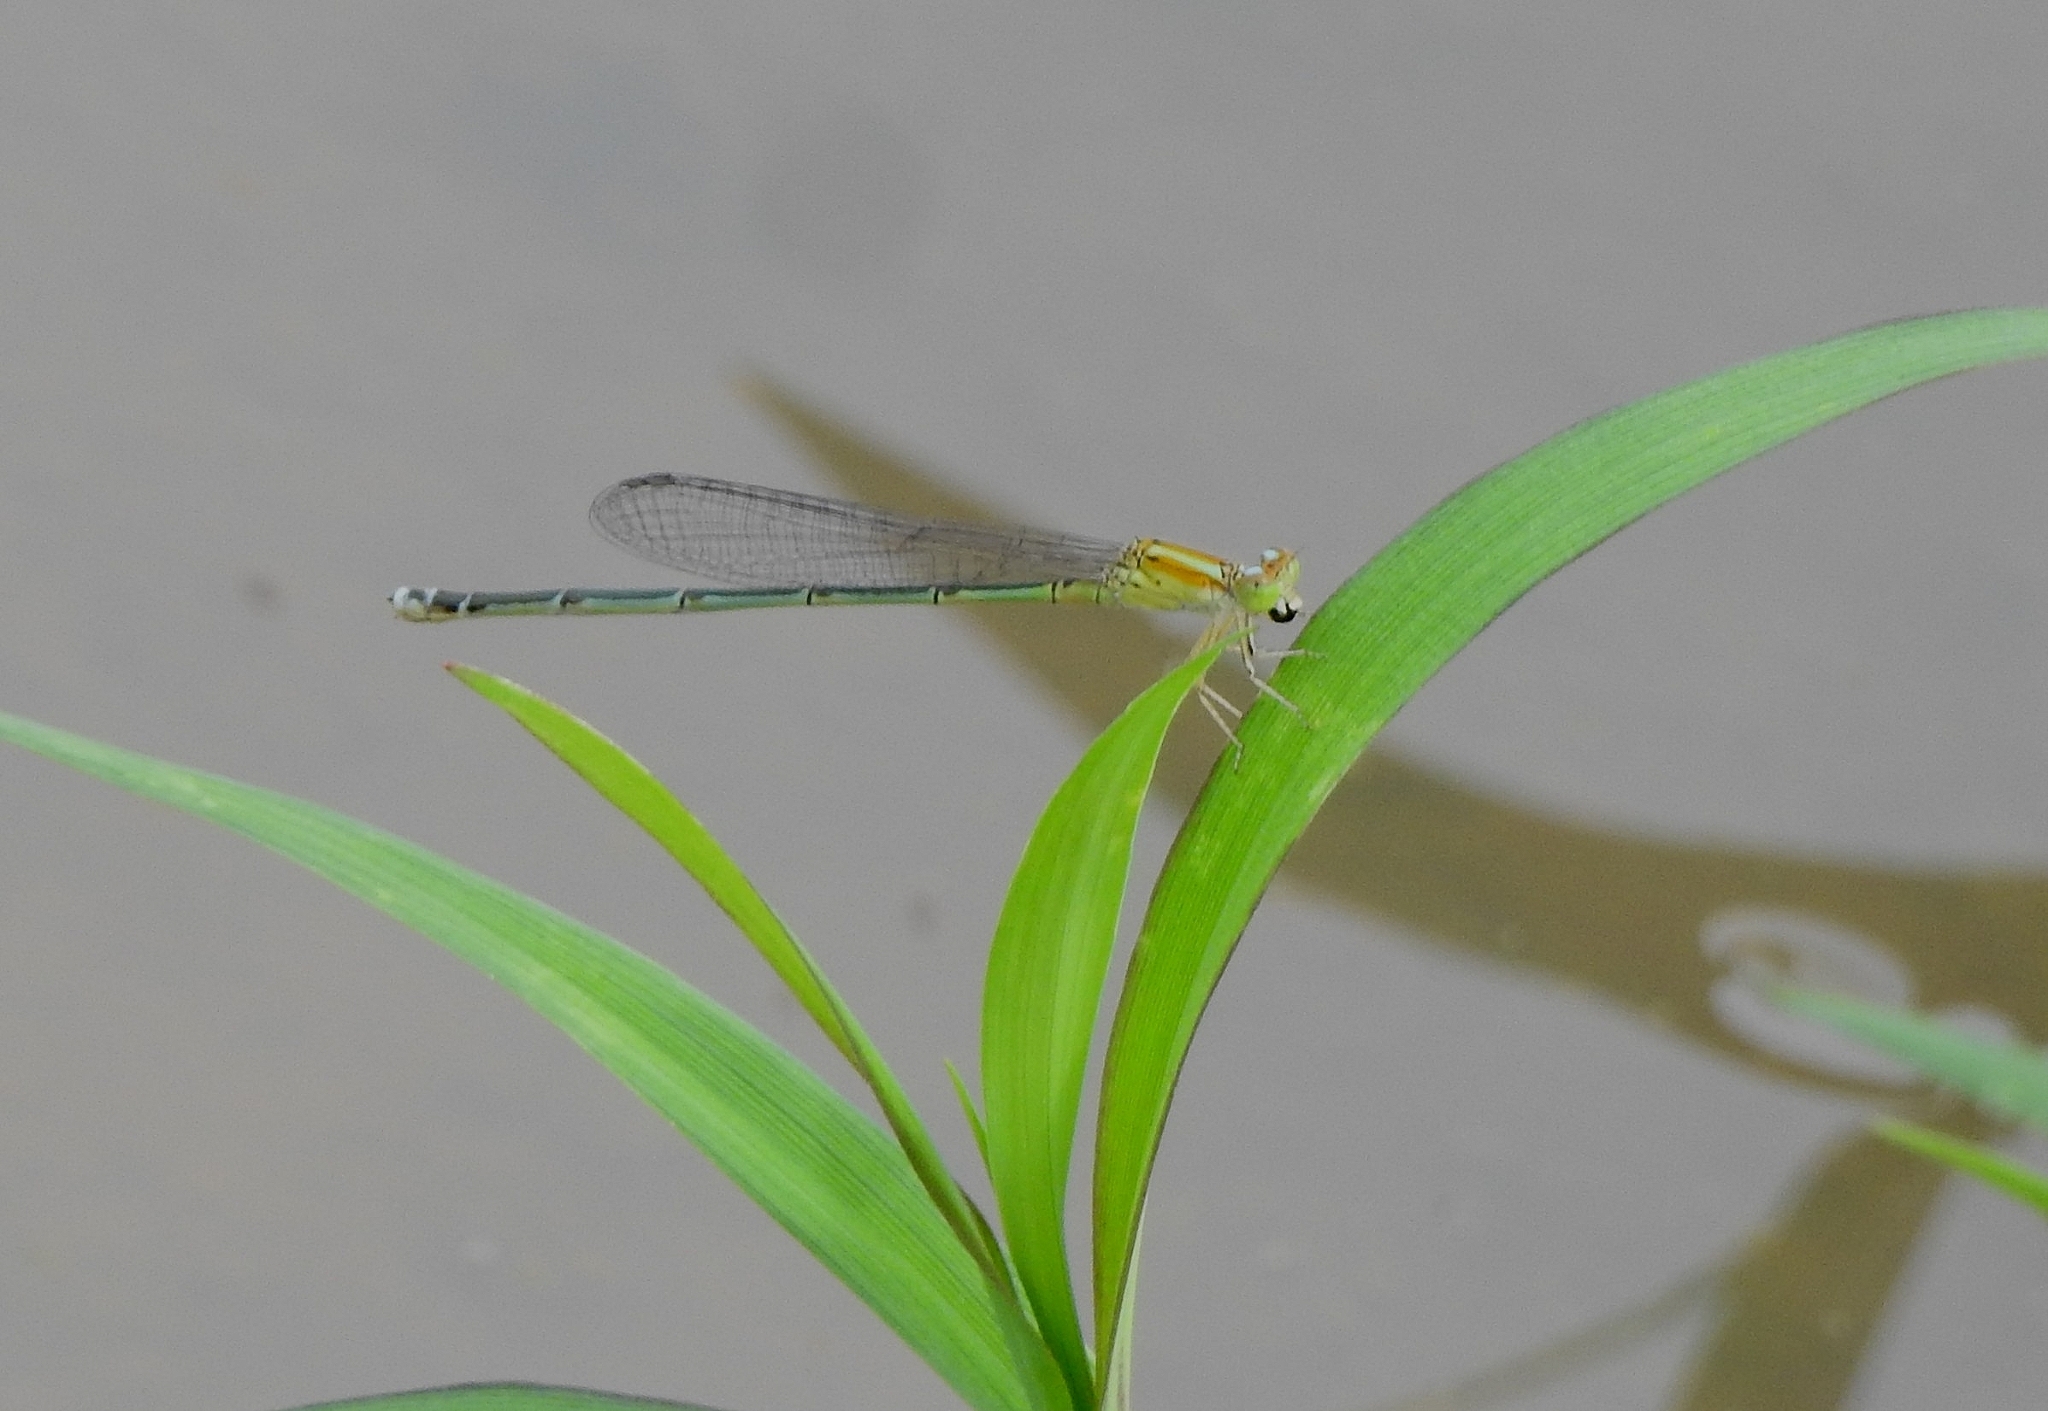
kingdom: Animalia
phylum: Arthropoda
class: Insecta
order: Odonata
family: Coenagrionidae
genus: Pseudagrion
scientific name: Pseudagrion microcephalum
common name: Blue riverdamsel
